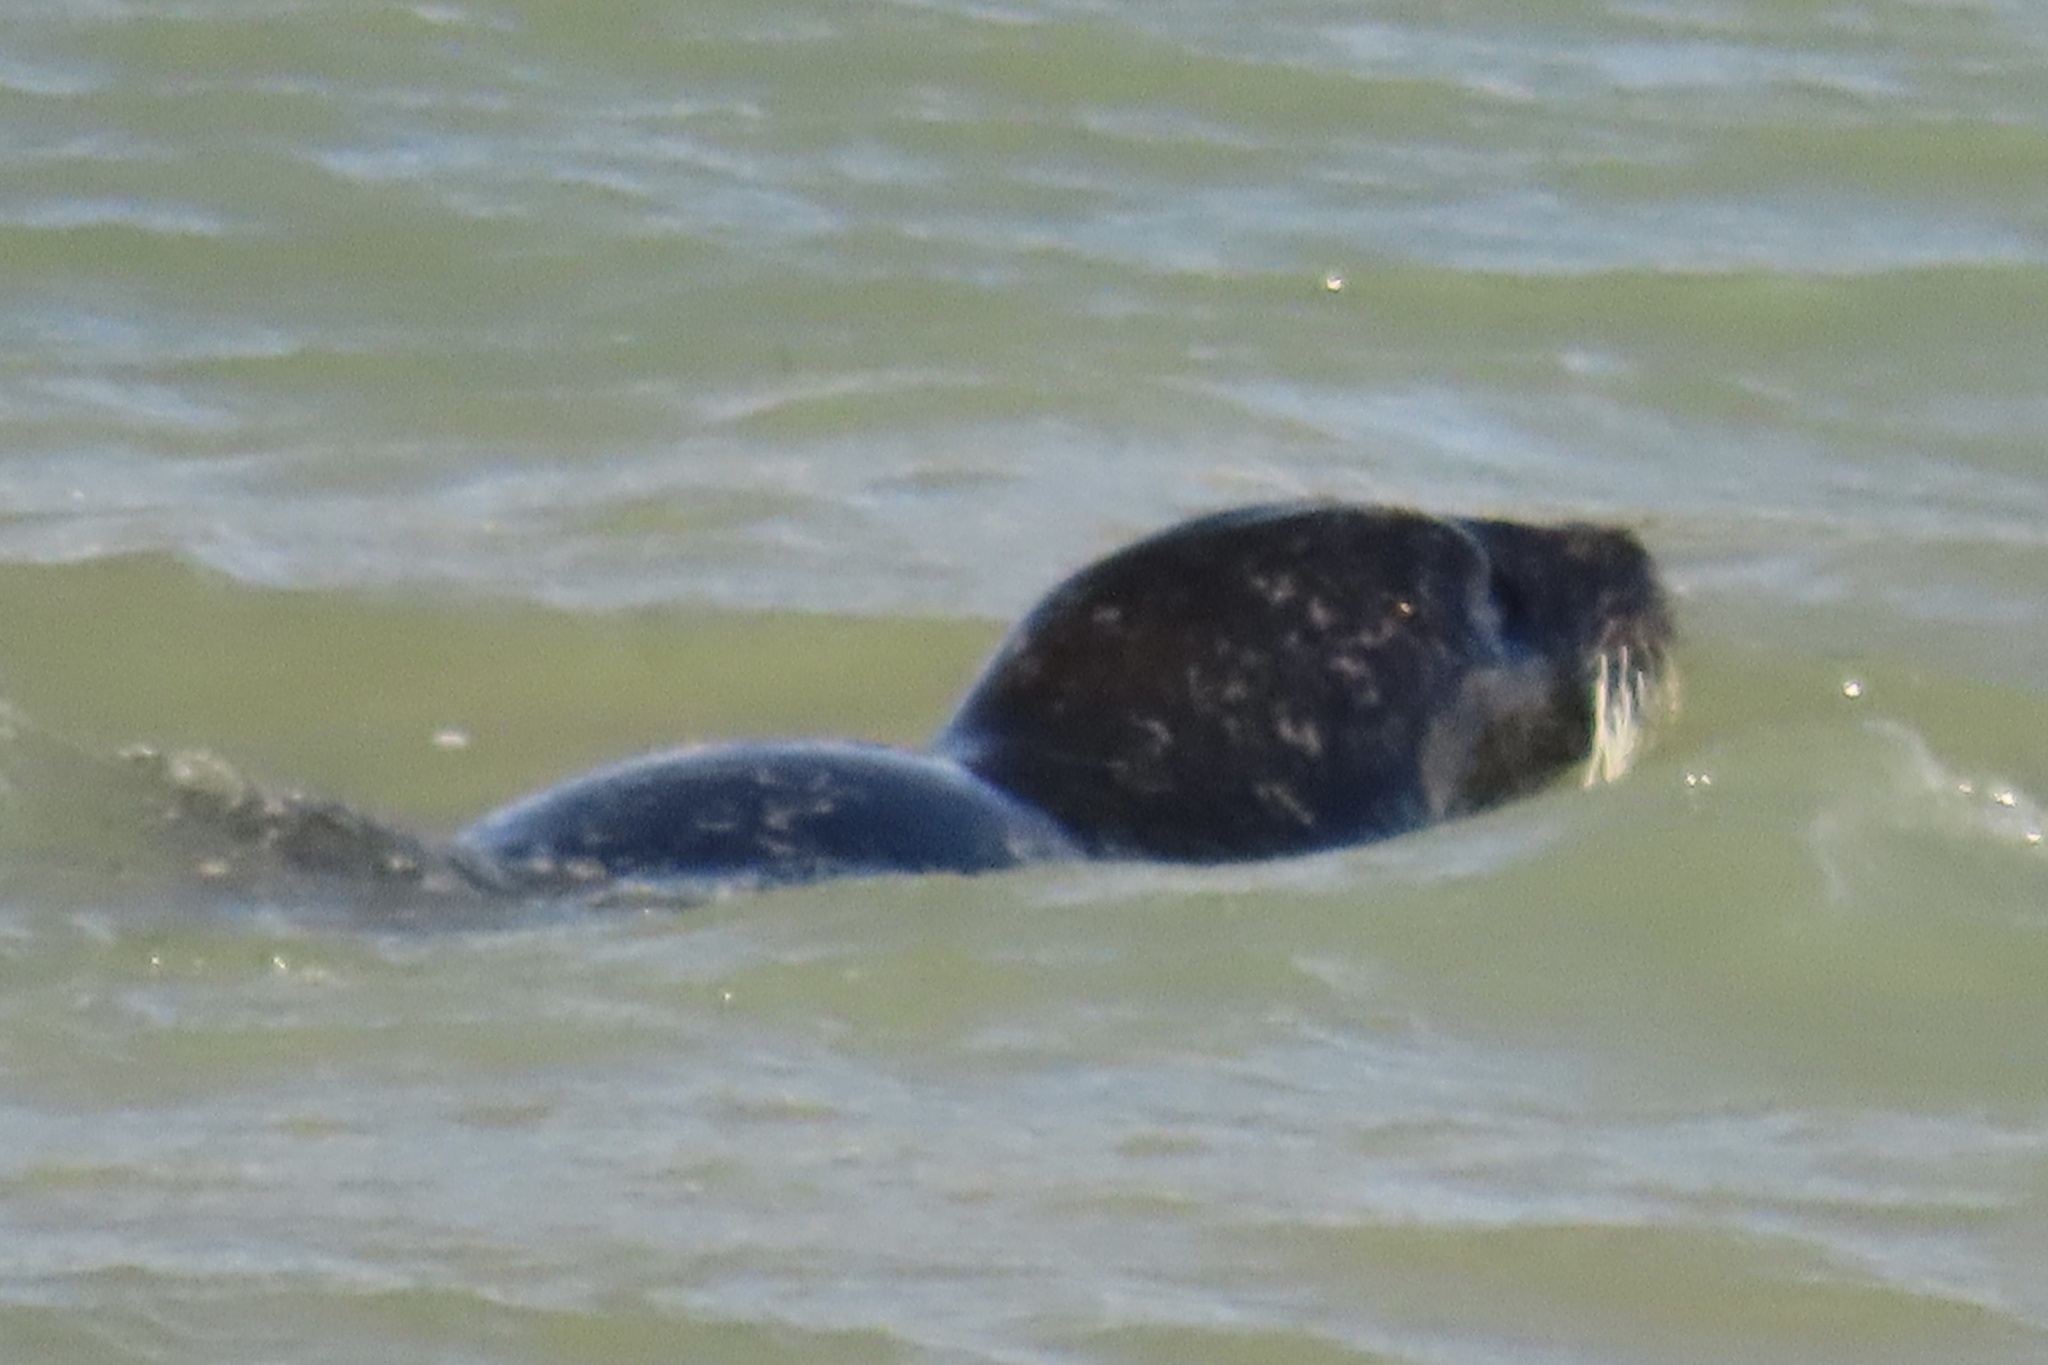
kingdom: Animalia
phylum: Chordata
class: Mammalia
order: Carnivora
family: Phocidae
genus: Phoca
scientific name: Phoca vitulina
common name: Harbor seal
